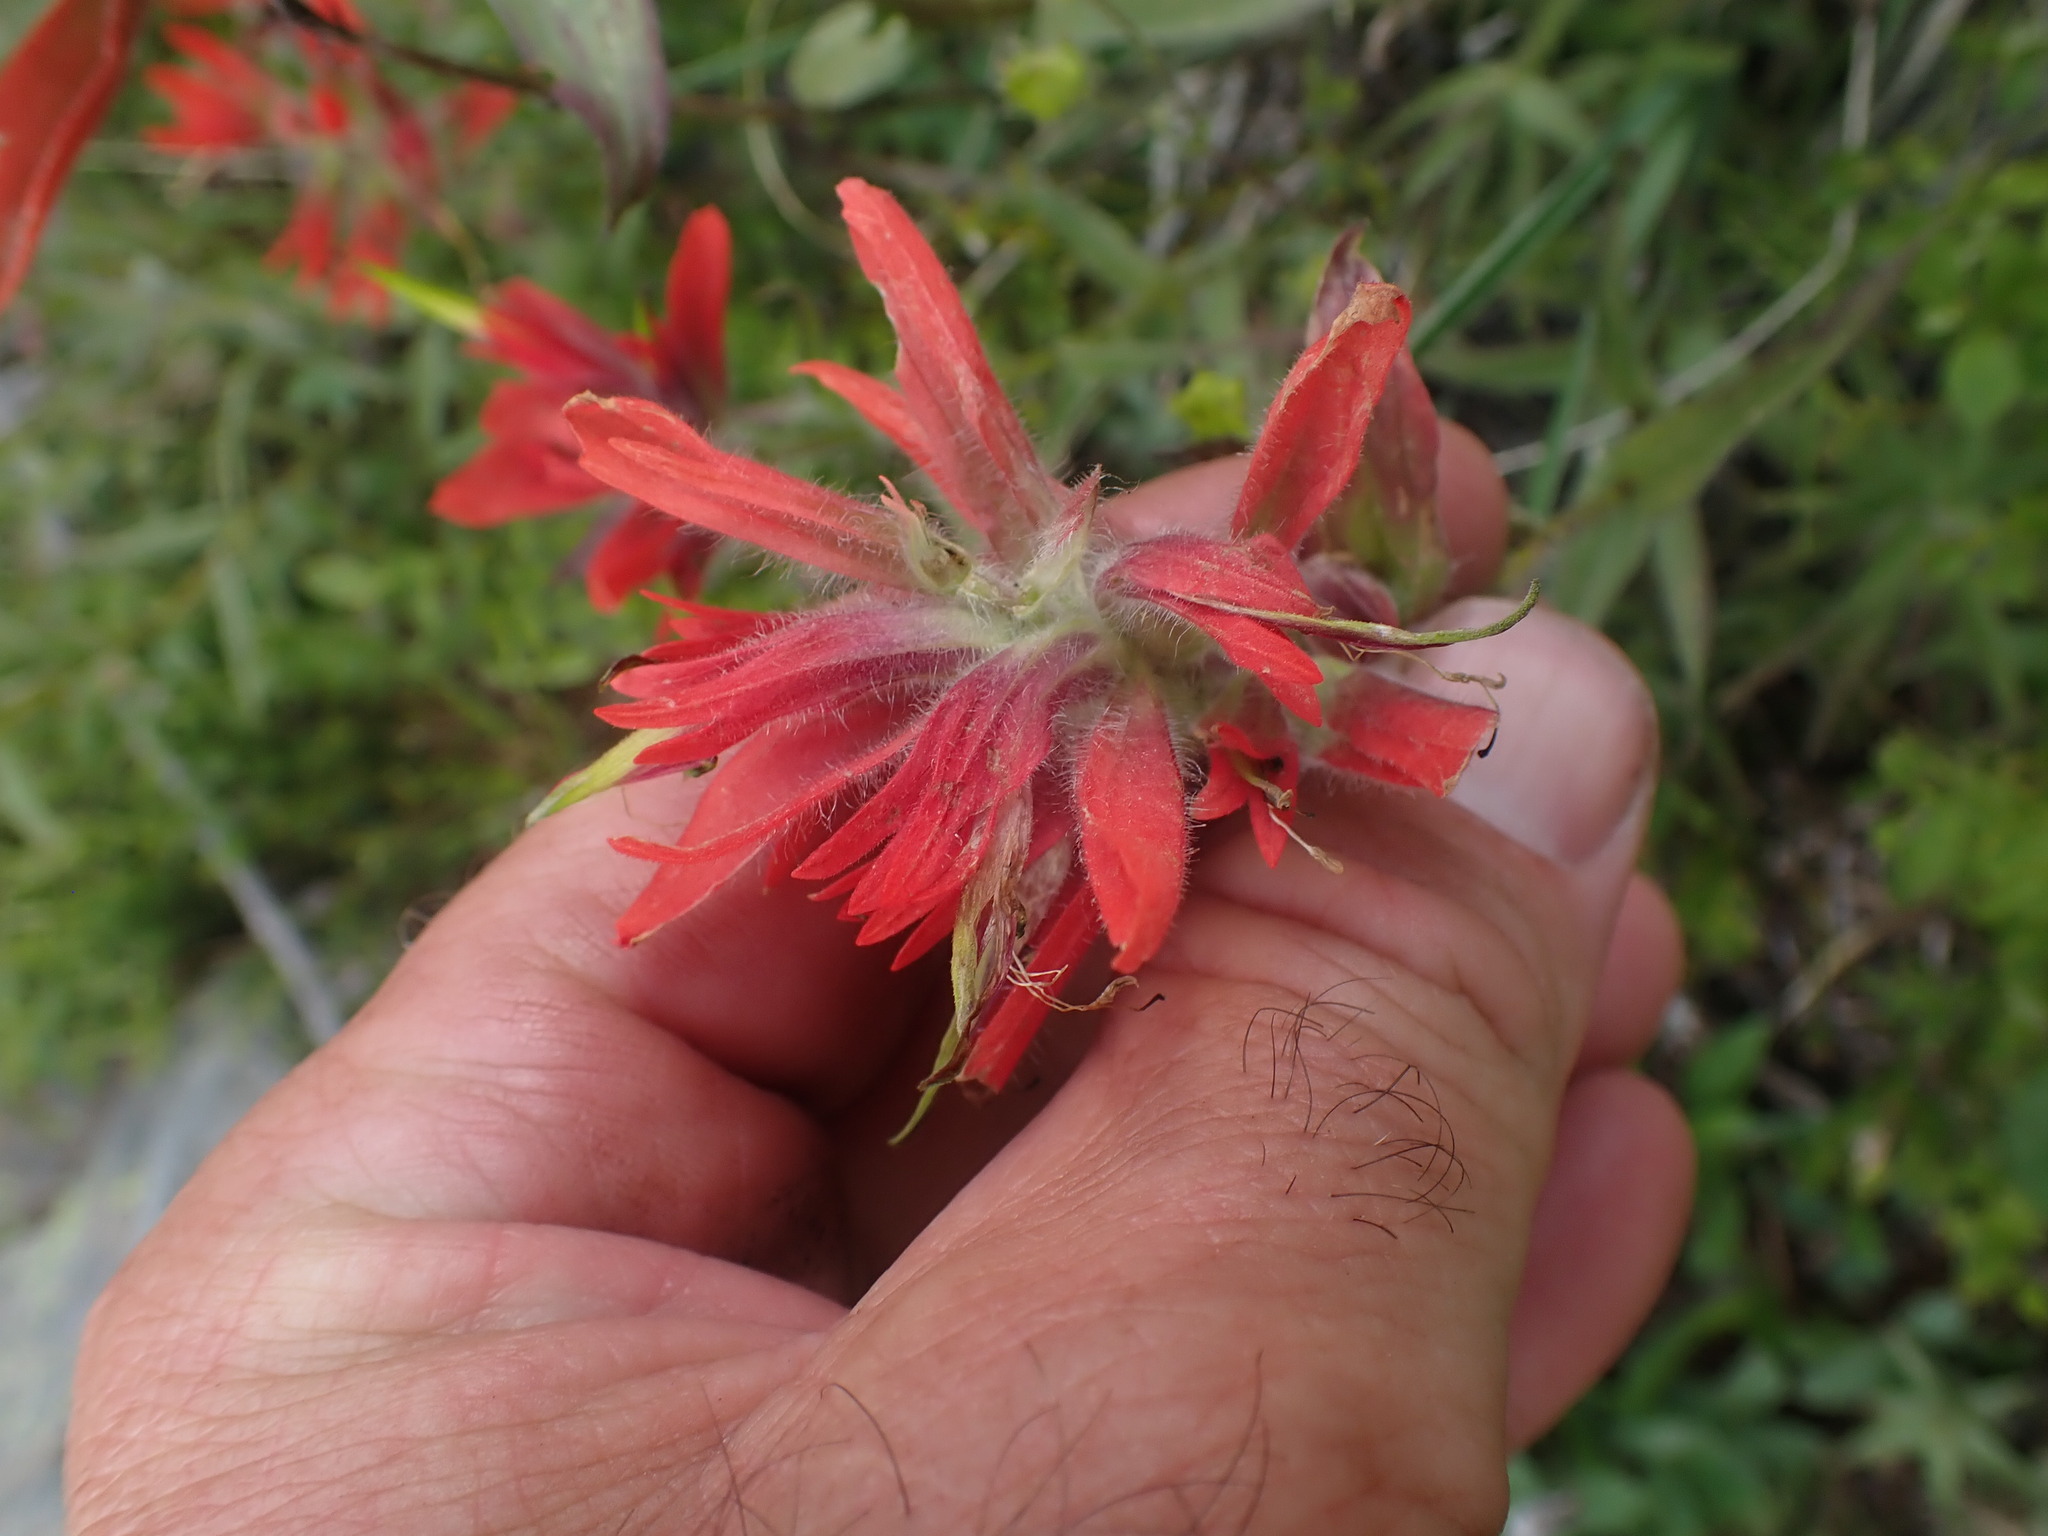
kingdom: Plantae
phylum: Tracheophyta
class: Magnoliopsida
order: Lamiales
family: Orobanchaceae
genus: Castilleja
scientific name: Castilleja miniata
